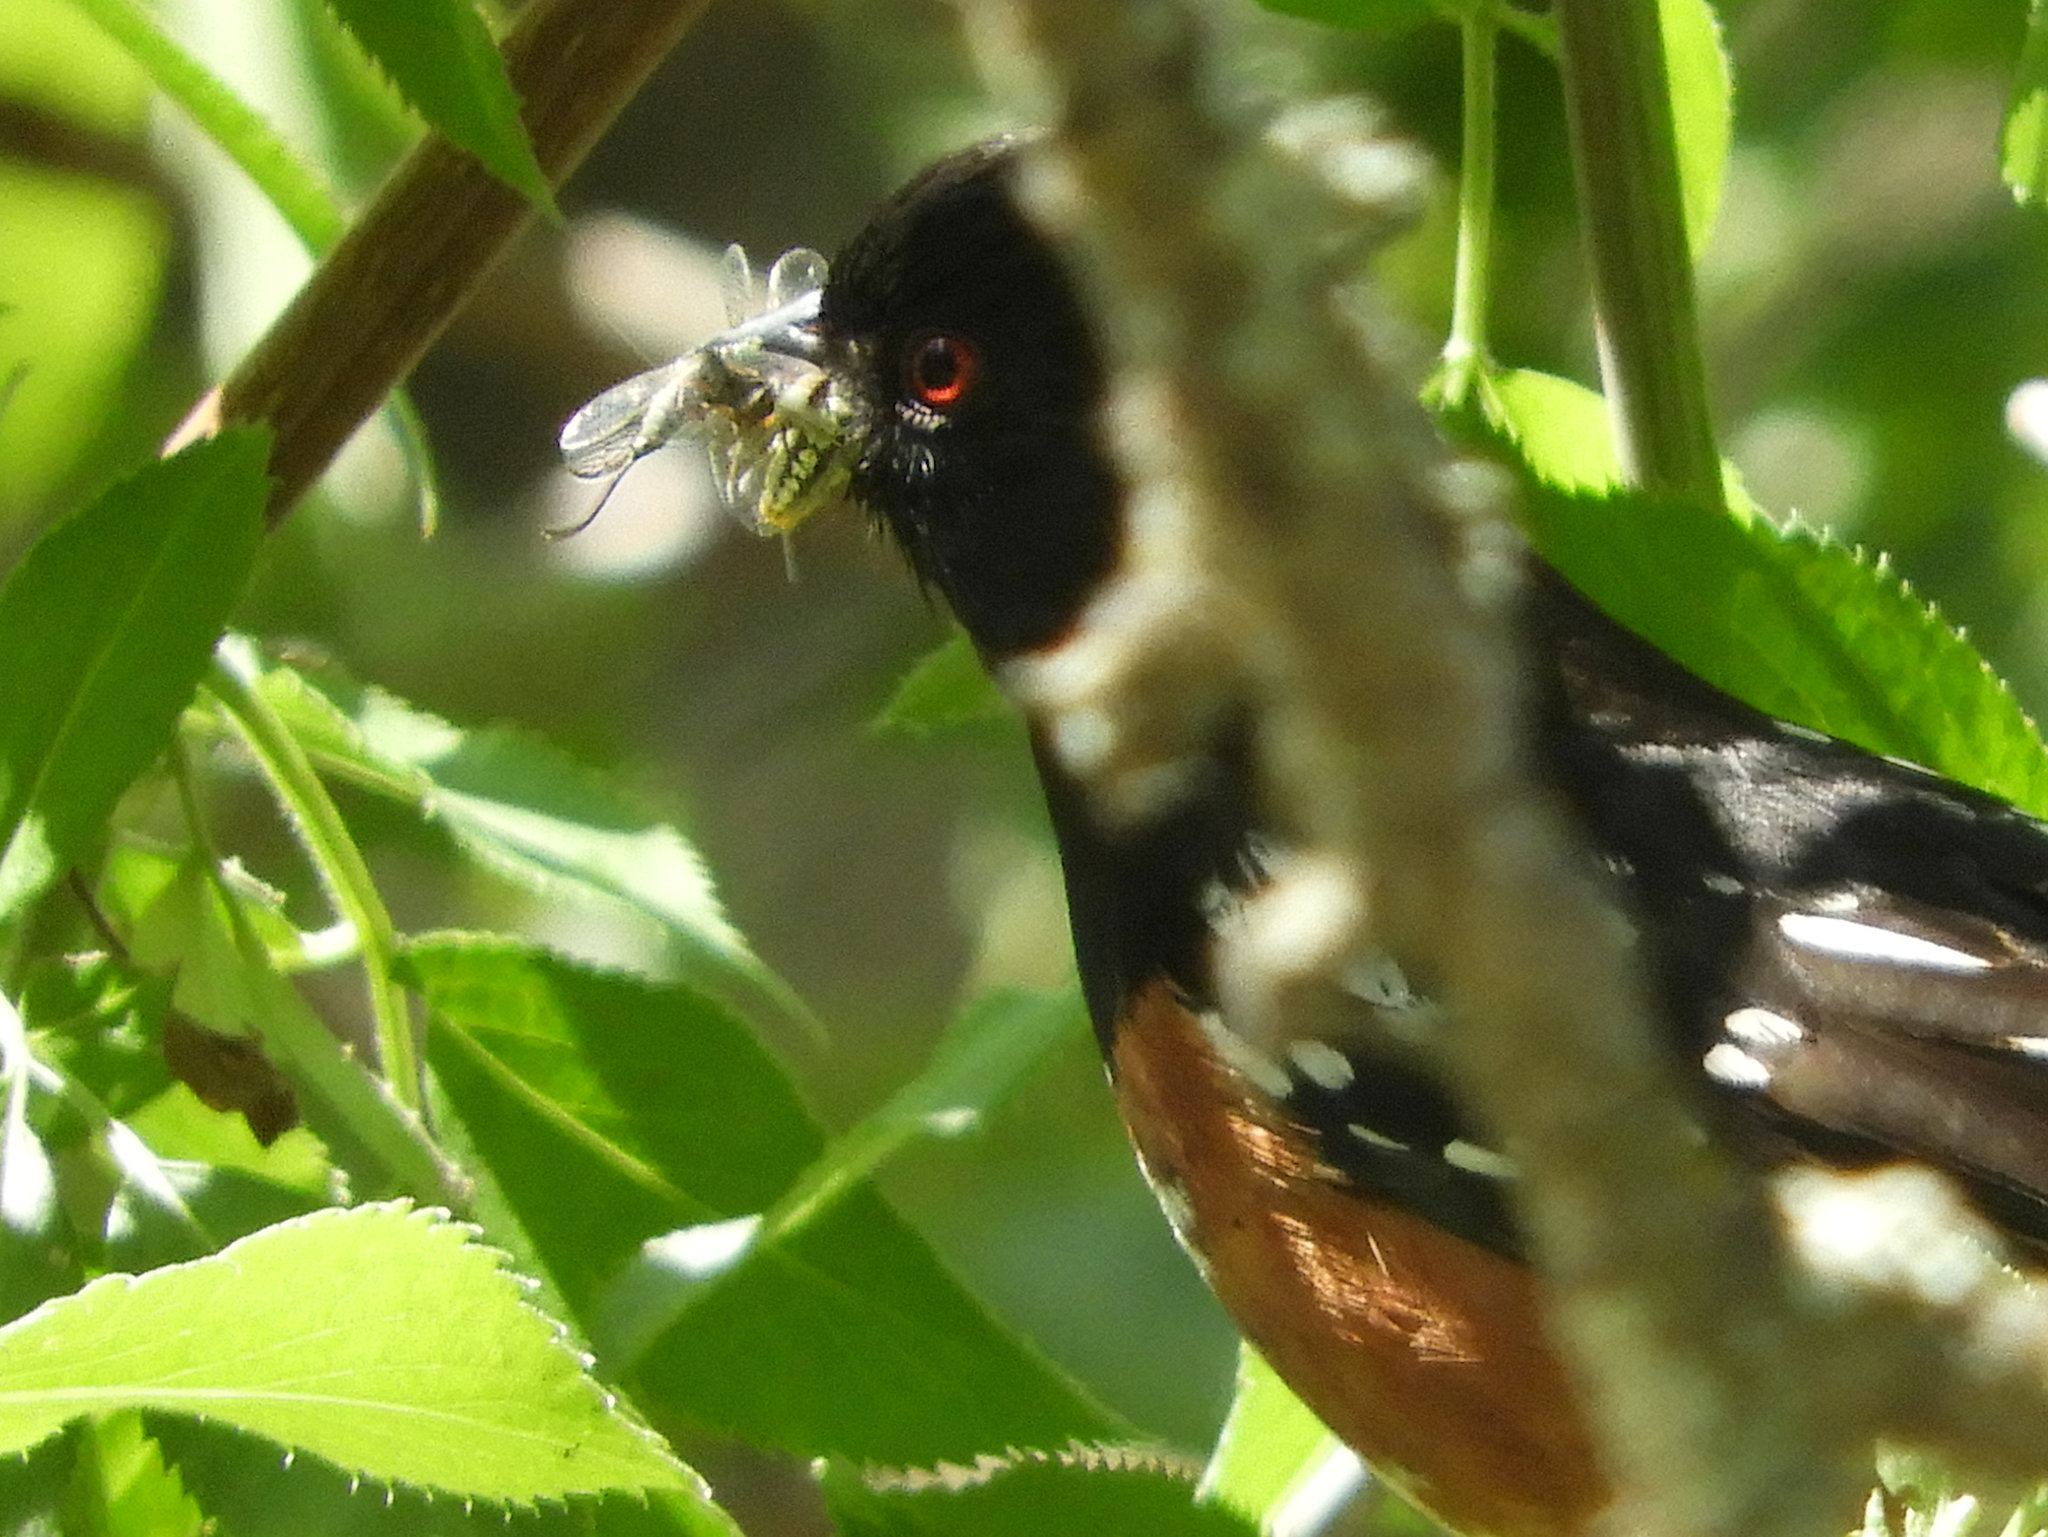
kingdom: Animalia
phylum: Chordata
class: Aves
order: Passeriformes
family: Passerellidae
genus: Pipilo
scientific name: Pipilo maculatus
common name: Spotted towhee
